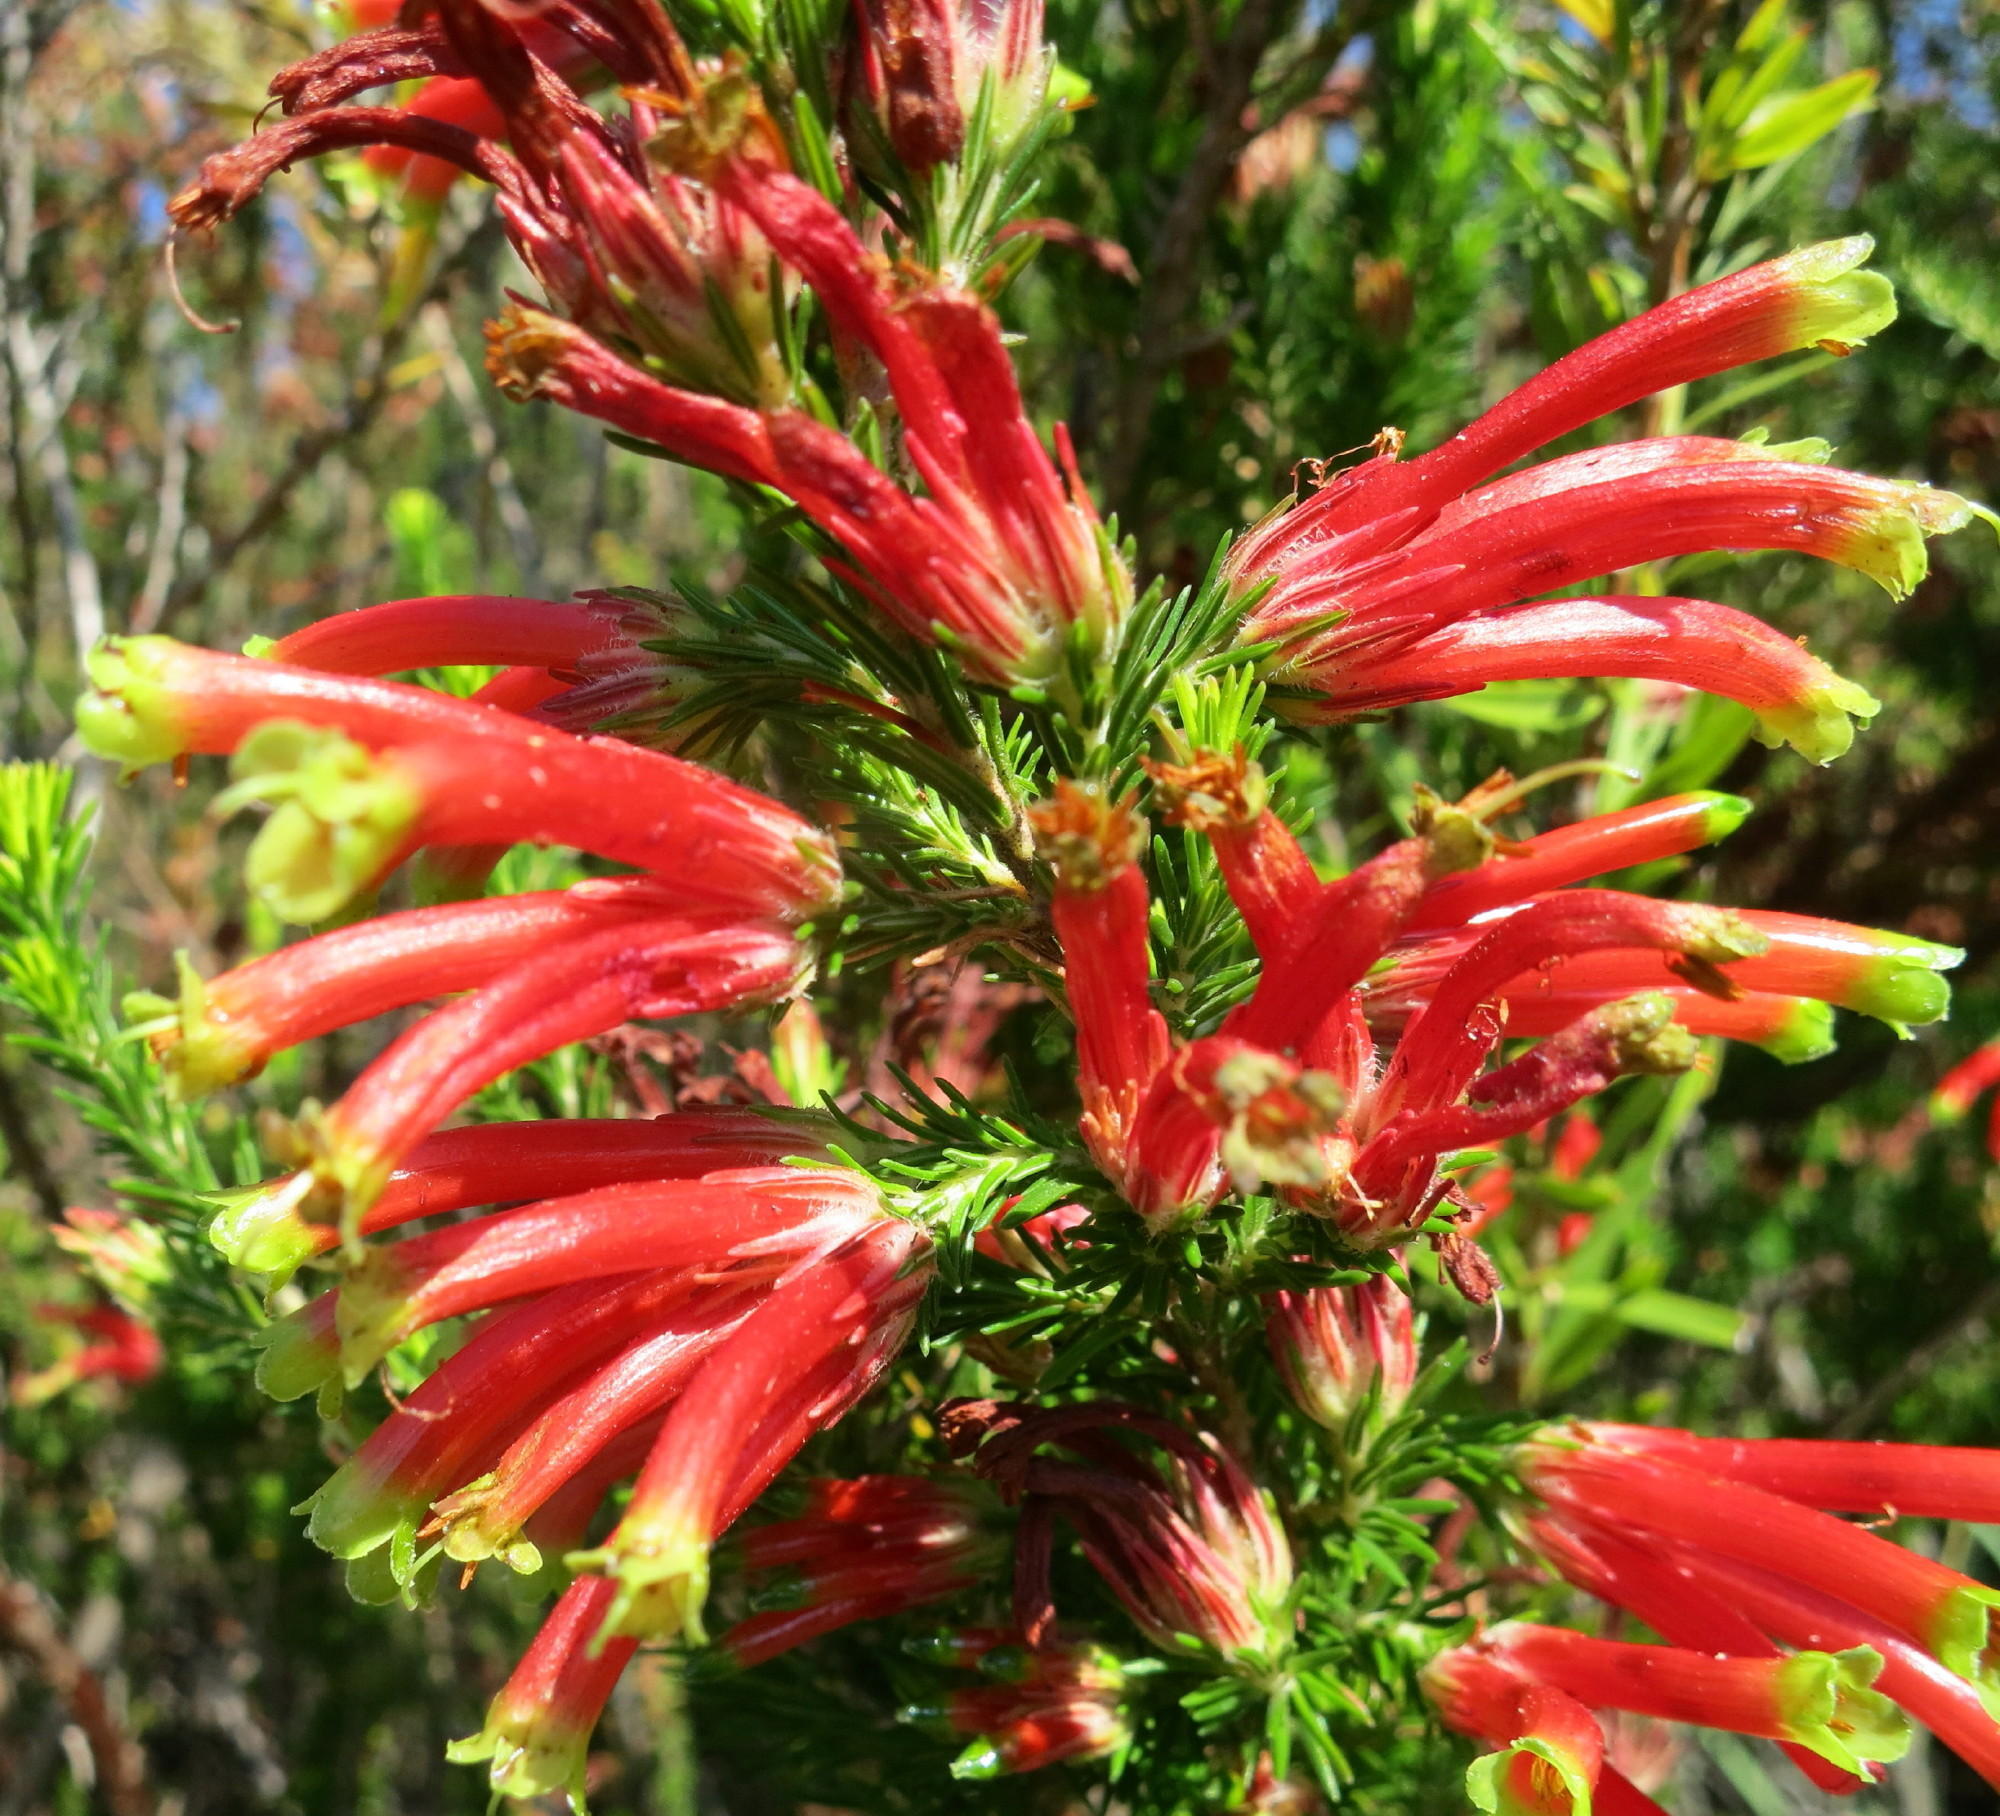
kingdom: Plantae
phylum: Tracheophyta
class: Magnoliopsida
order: Ericales
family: Ericaceae
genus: Erica
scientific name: Erica unicolor
